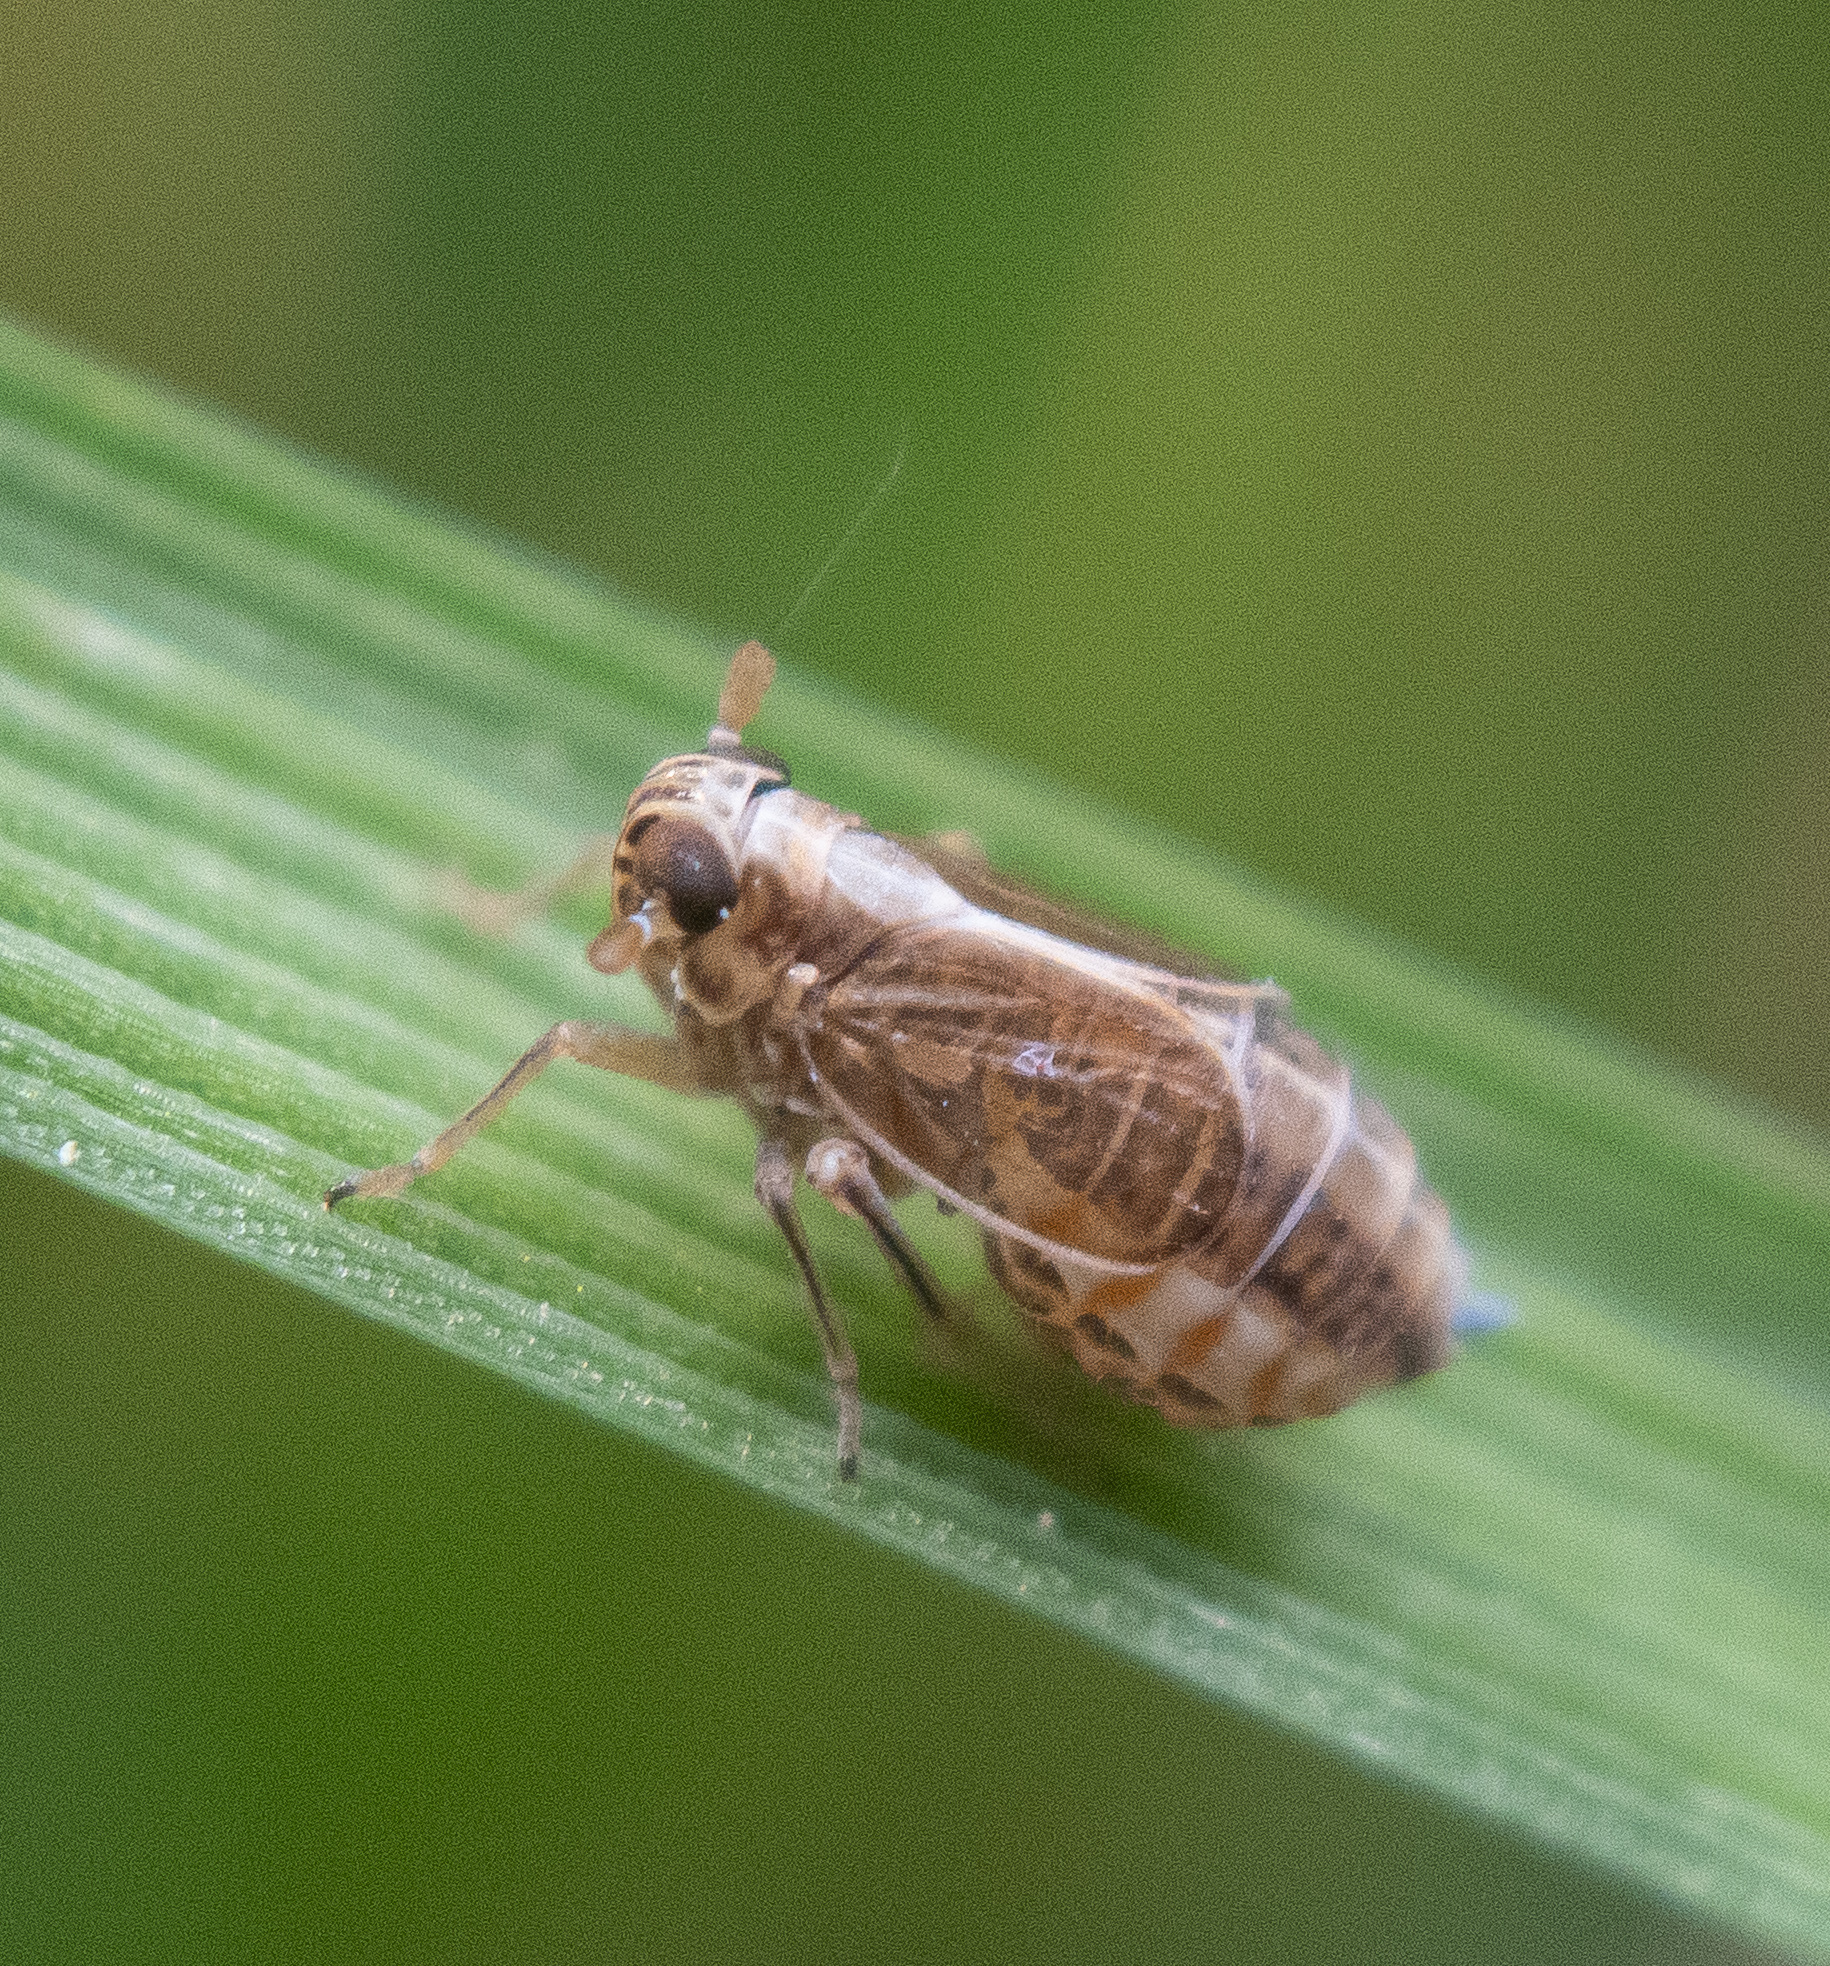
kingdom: Animalia
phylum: Arthropoda
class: Insecta
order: Hemiptera
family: Delphacidae
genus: Muellerianella
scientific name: Muellerianella laminalis
